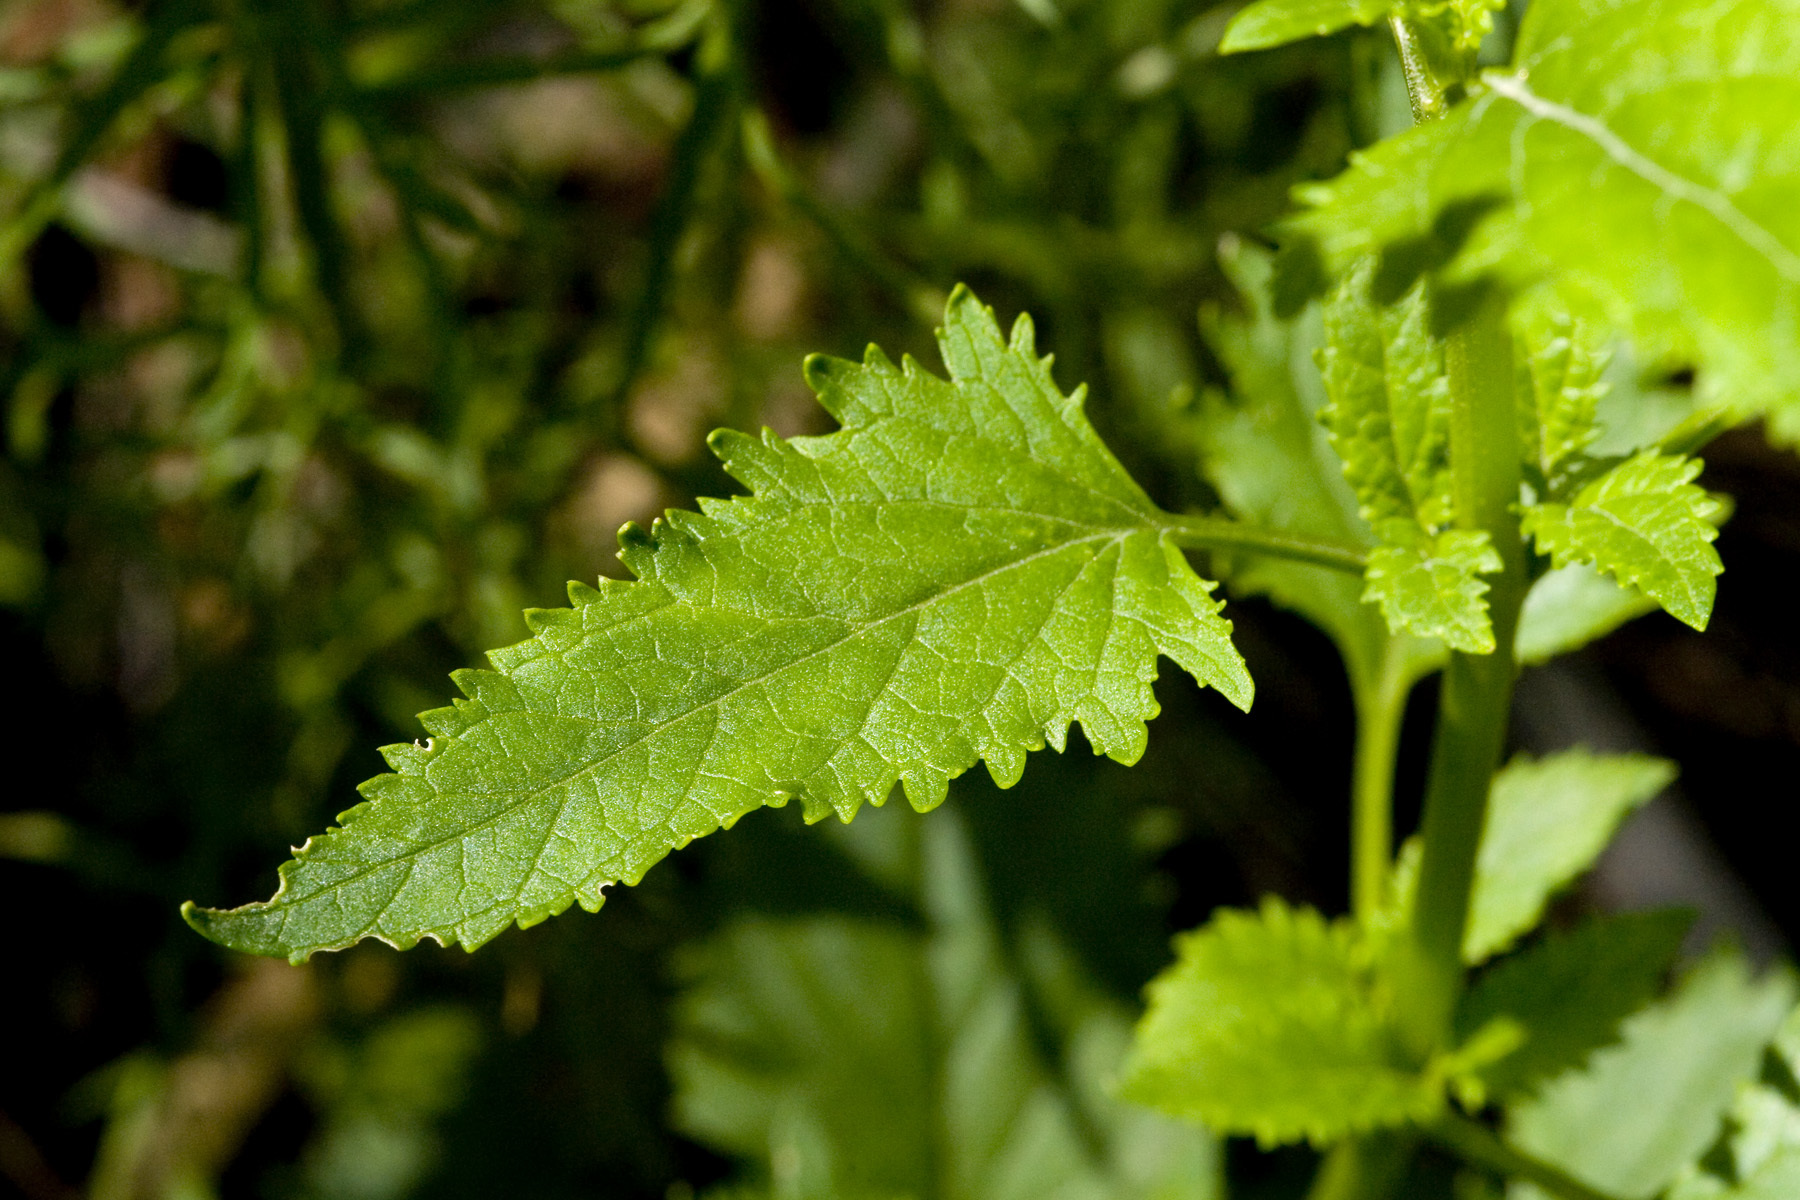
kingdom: Plantae
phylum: Tracheophyta
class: Magnoliopsida
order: Lamiales
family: Scrophulariaceae
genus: Scrophularia
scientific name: Scrophularia macrantha
